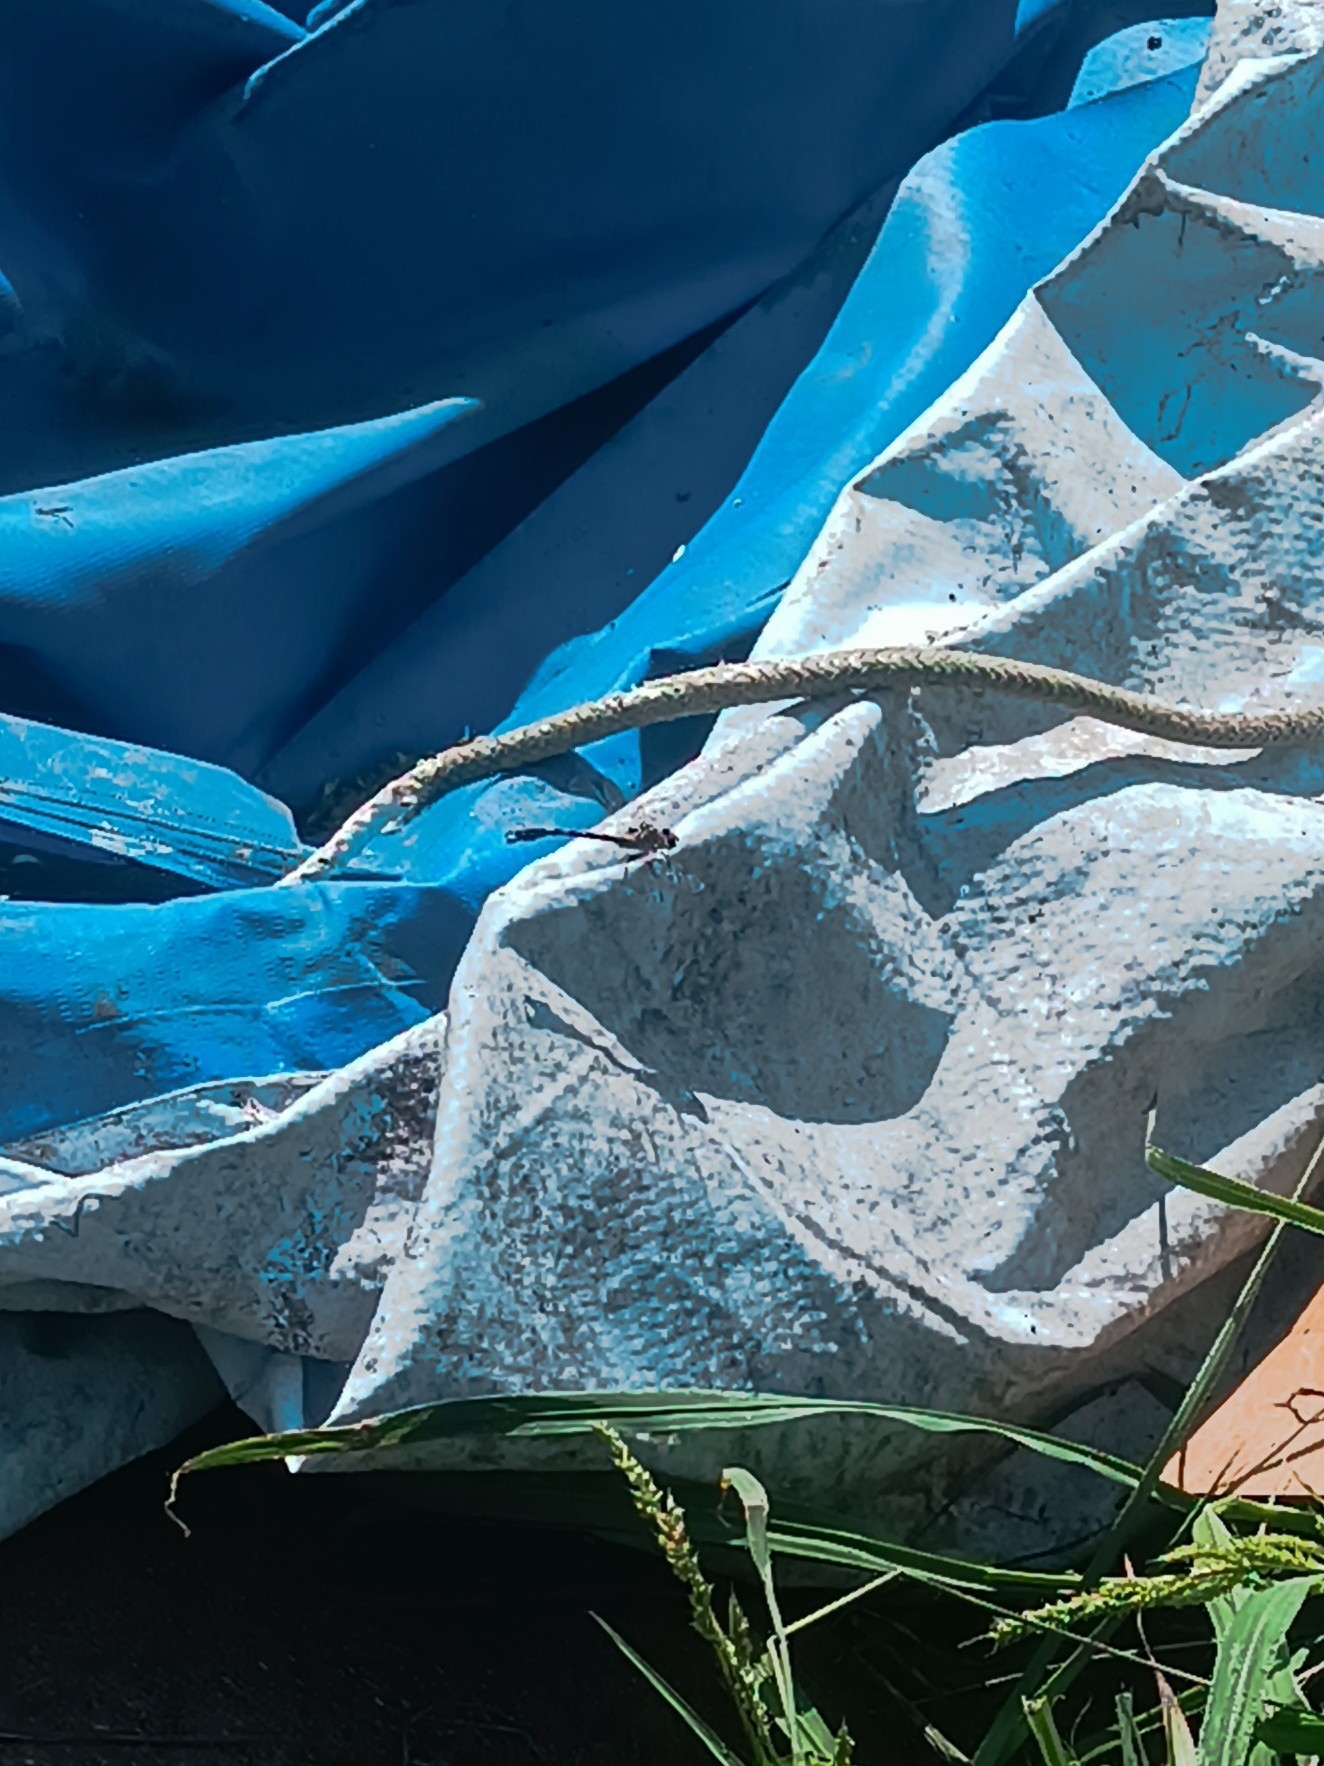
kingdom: Animalia
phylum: Arthropoda
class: Insecta
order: Odonata
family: Gomphidae
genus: Onychogomphus
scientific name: Onychogomphus forcipatus
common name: Small pincertail
